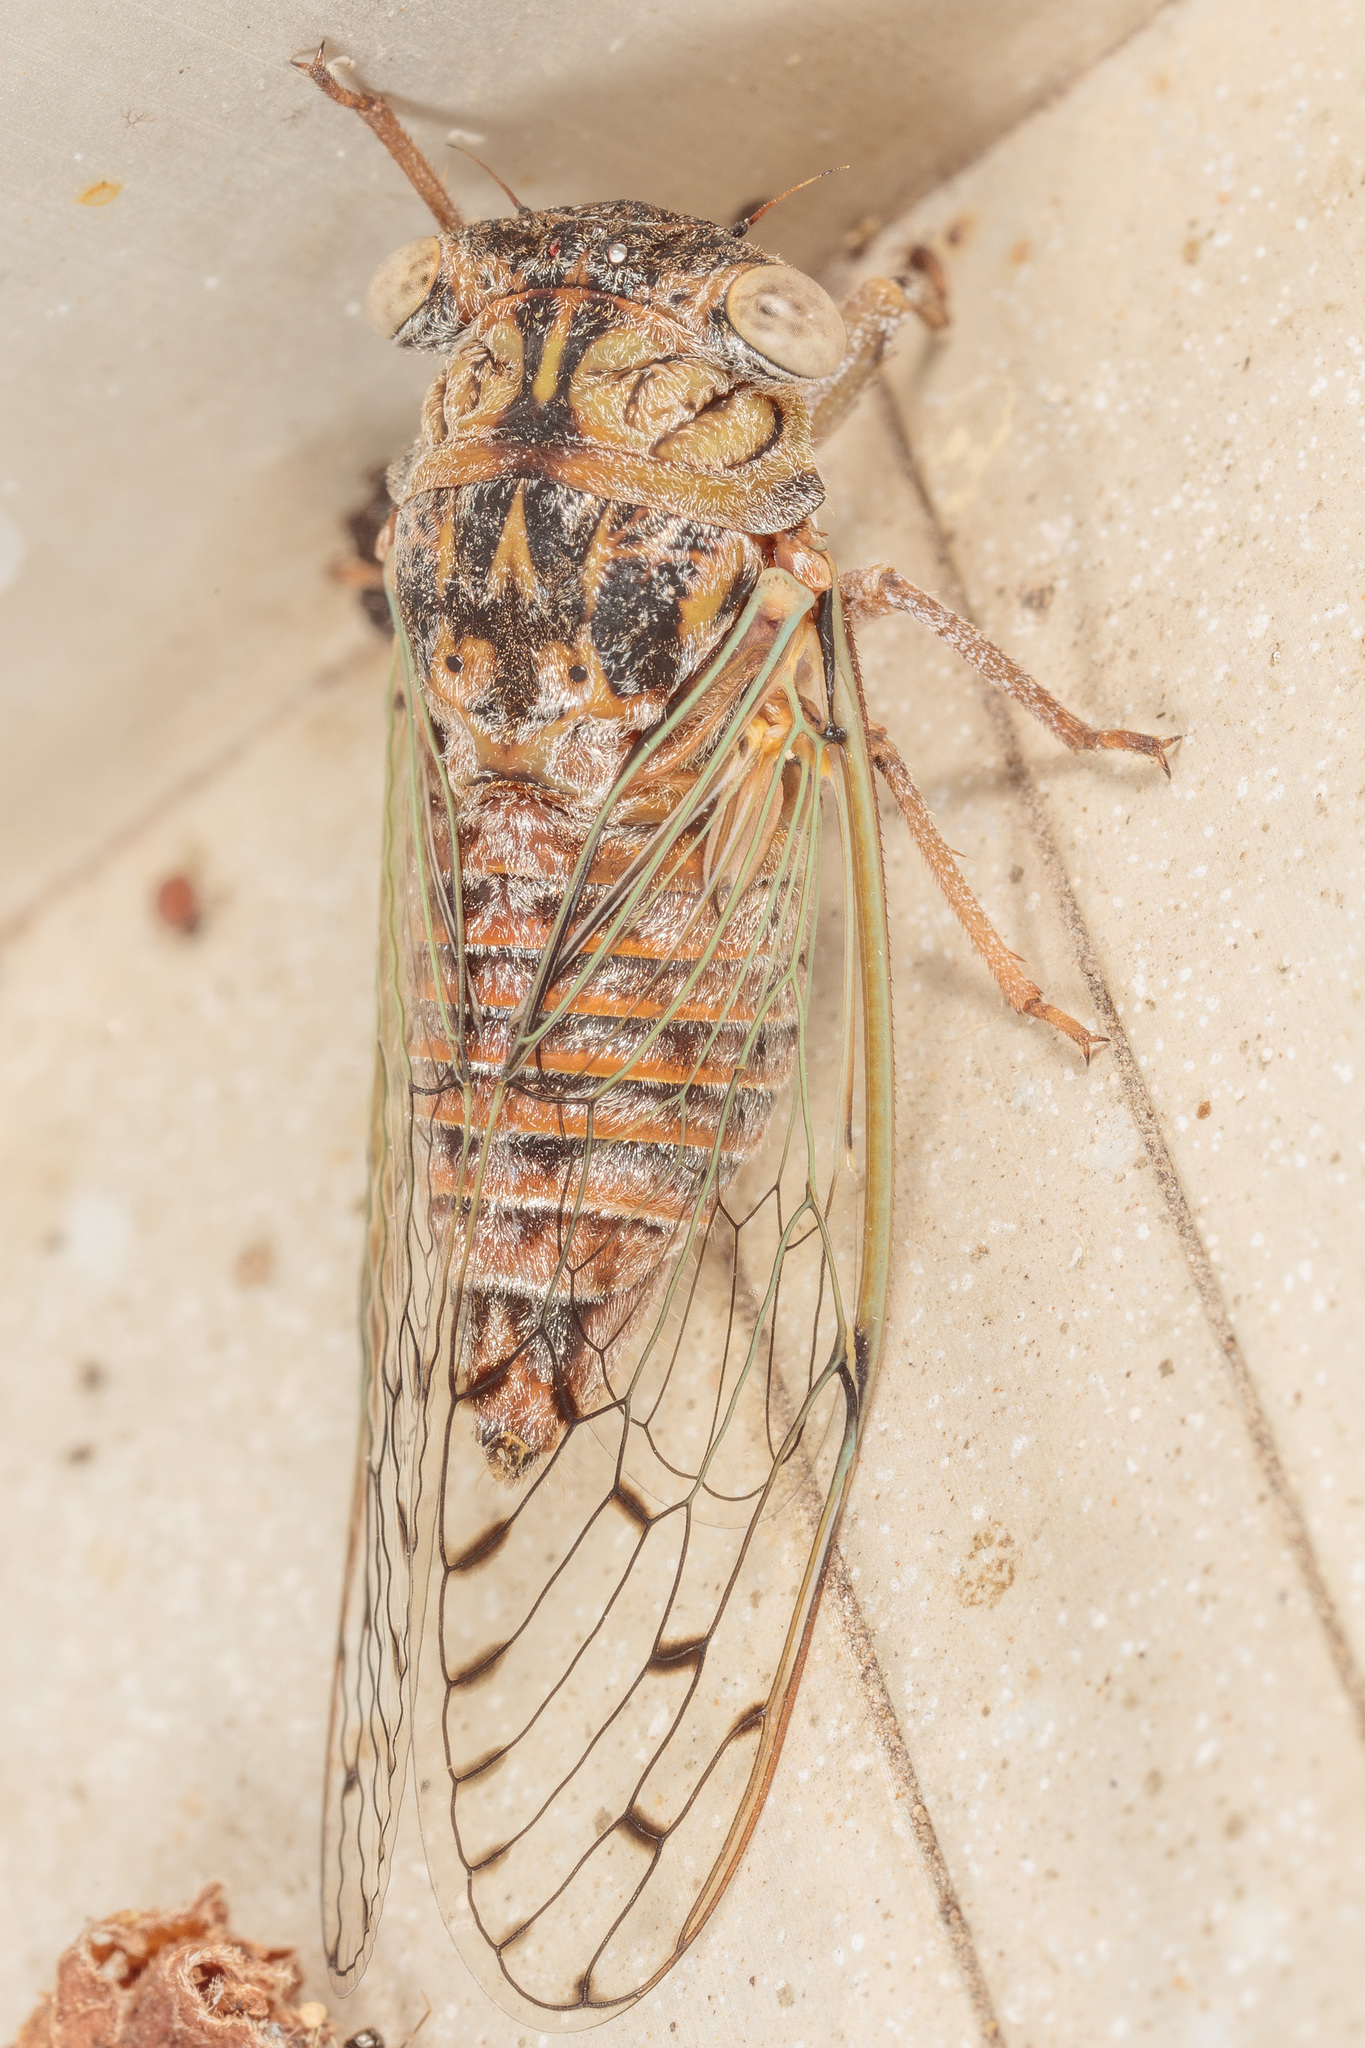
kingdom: Animalia
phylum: Arthropoda
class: Insecta
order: Hemiptera
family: Cicadidae
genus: Pacarina
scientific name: Pacarina puella
